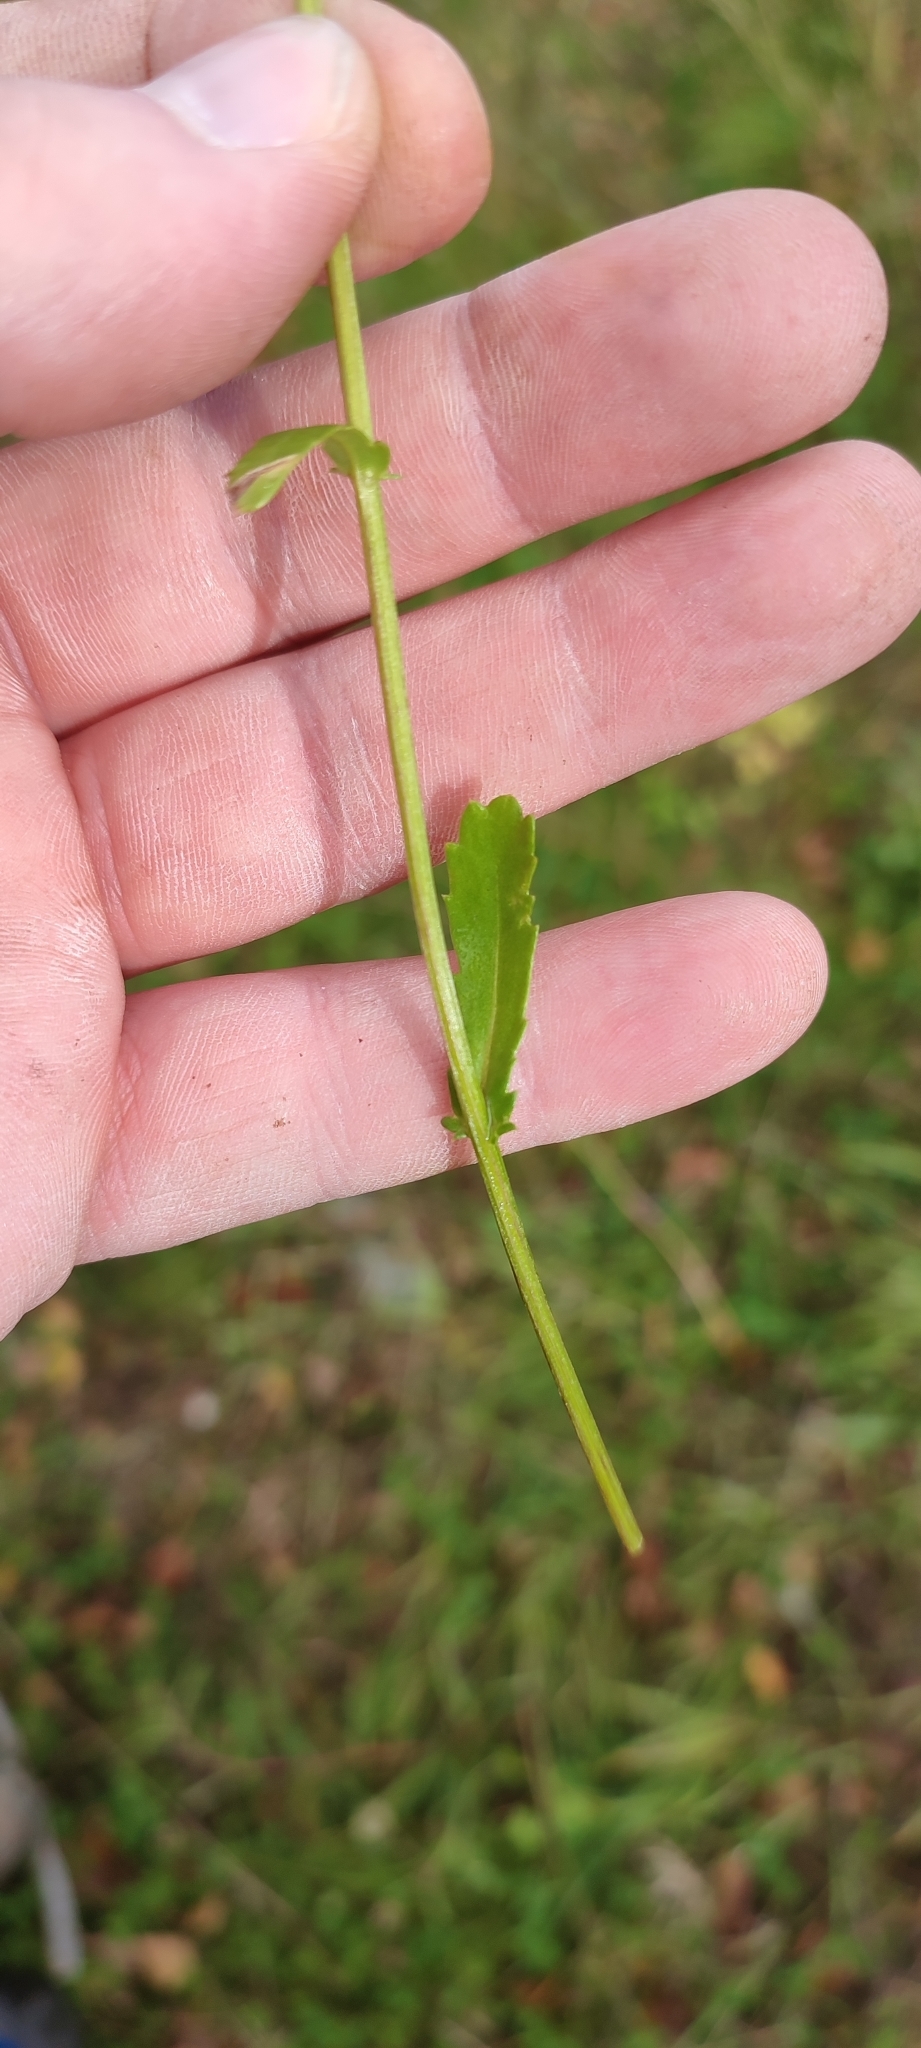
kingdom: Plantae
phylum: Tracheophyta
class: Magnoliopsida
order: Asterales
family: Asteraceae
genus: Leucanthemum
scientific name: Leucanthemum ircutianum
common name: Daisy
